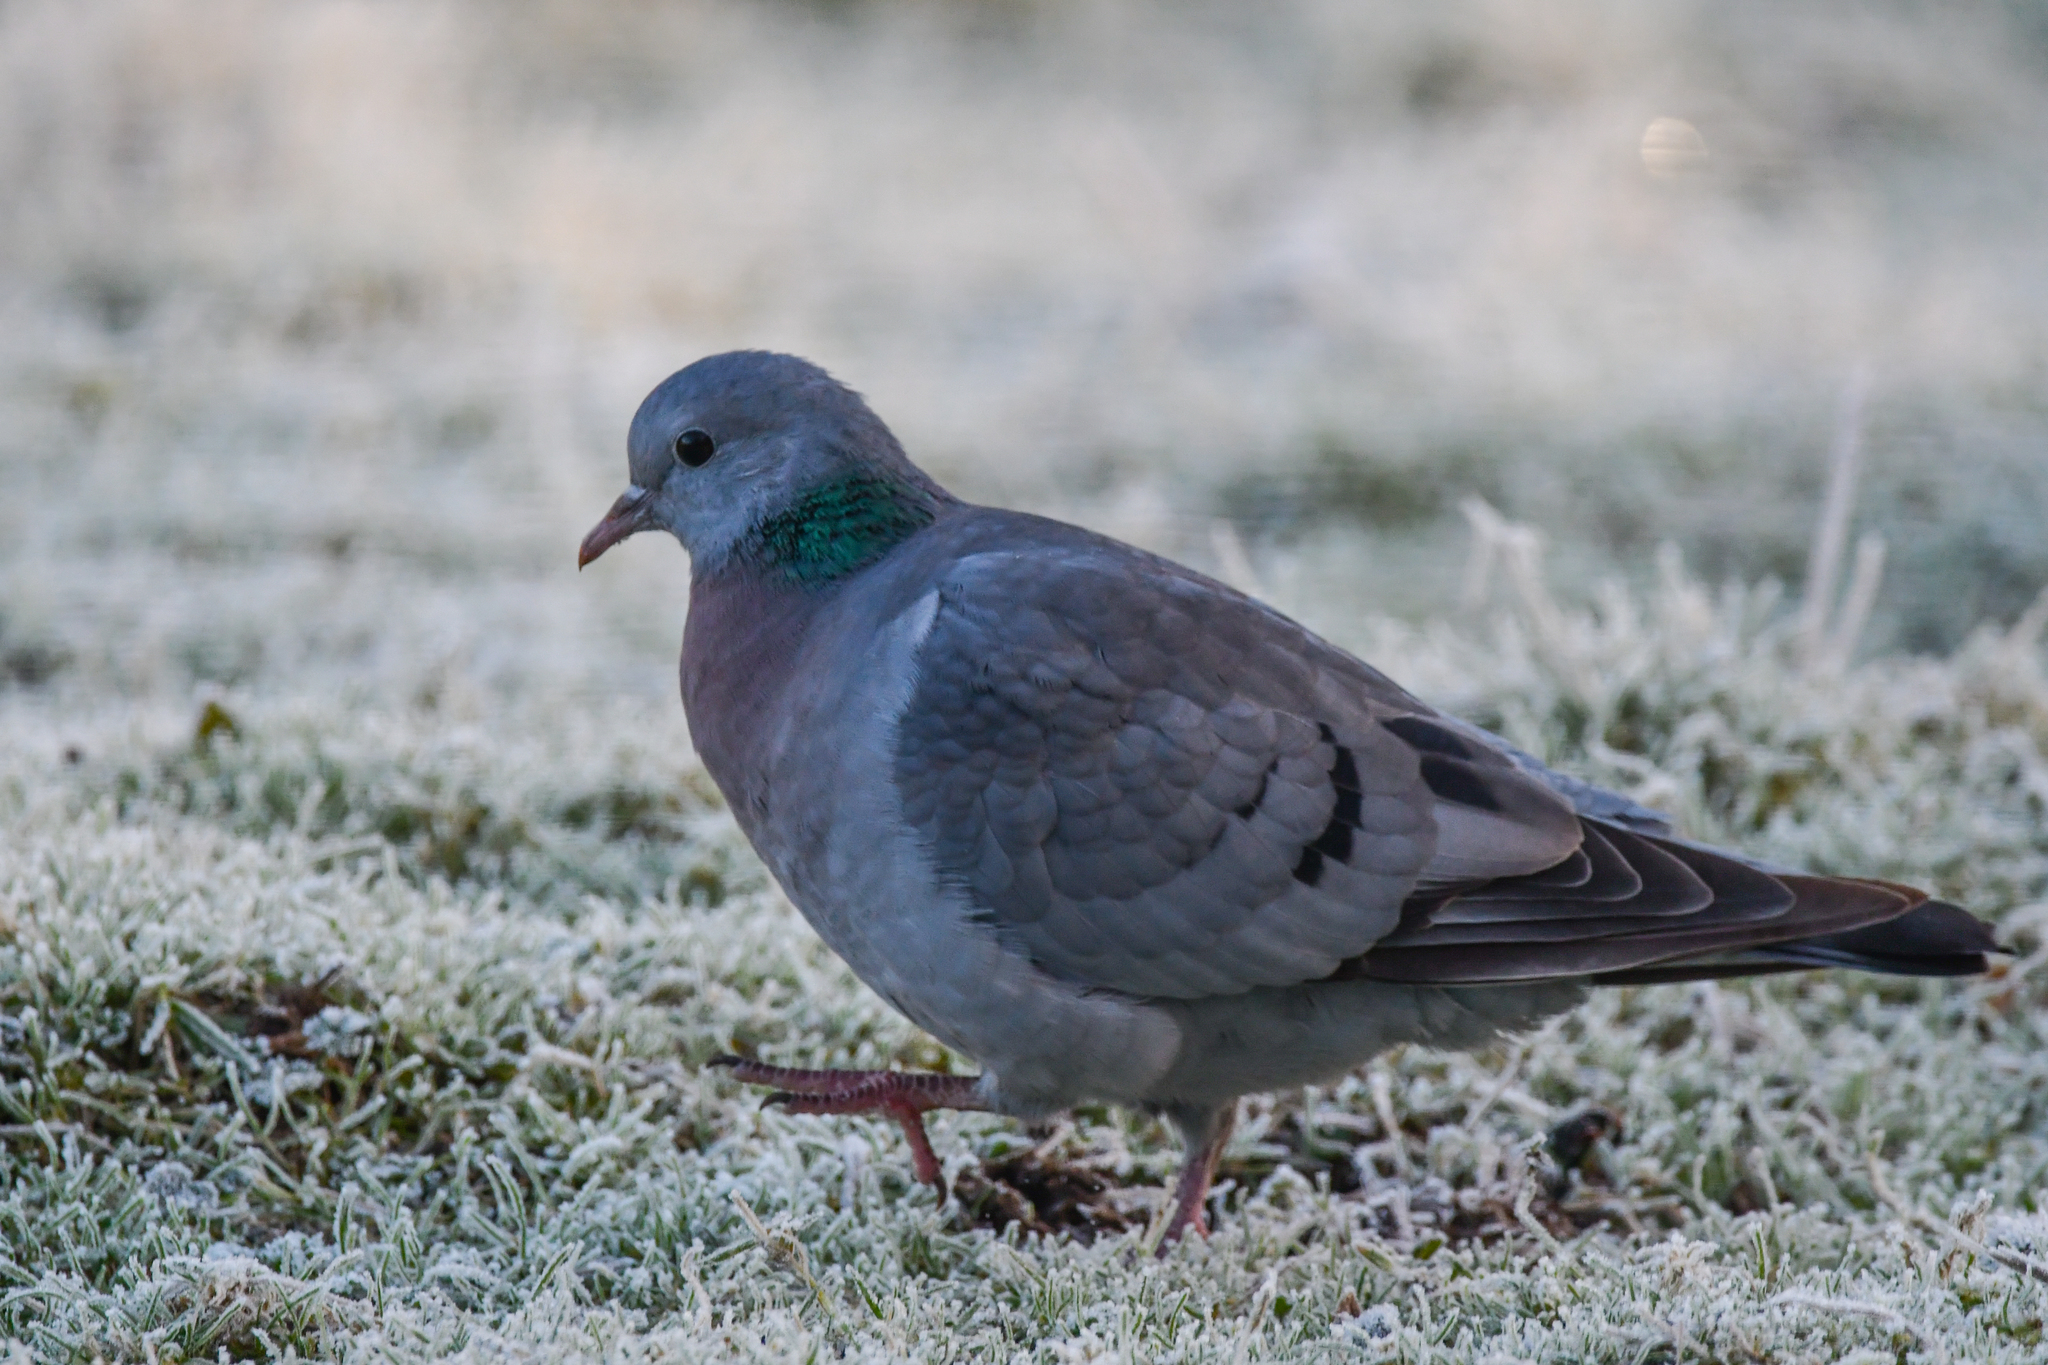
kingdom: Animalia
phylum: Chordata
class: Aves
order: Columbiformes
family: Columbidae
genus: Columba
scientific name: Columba oenas
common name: Stock dove
